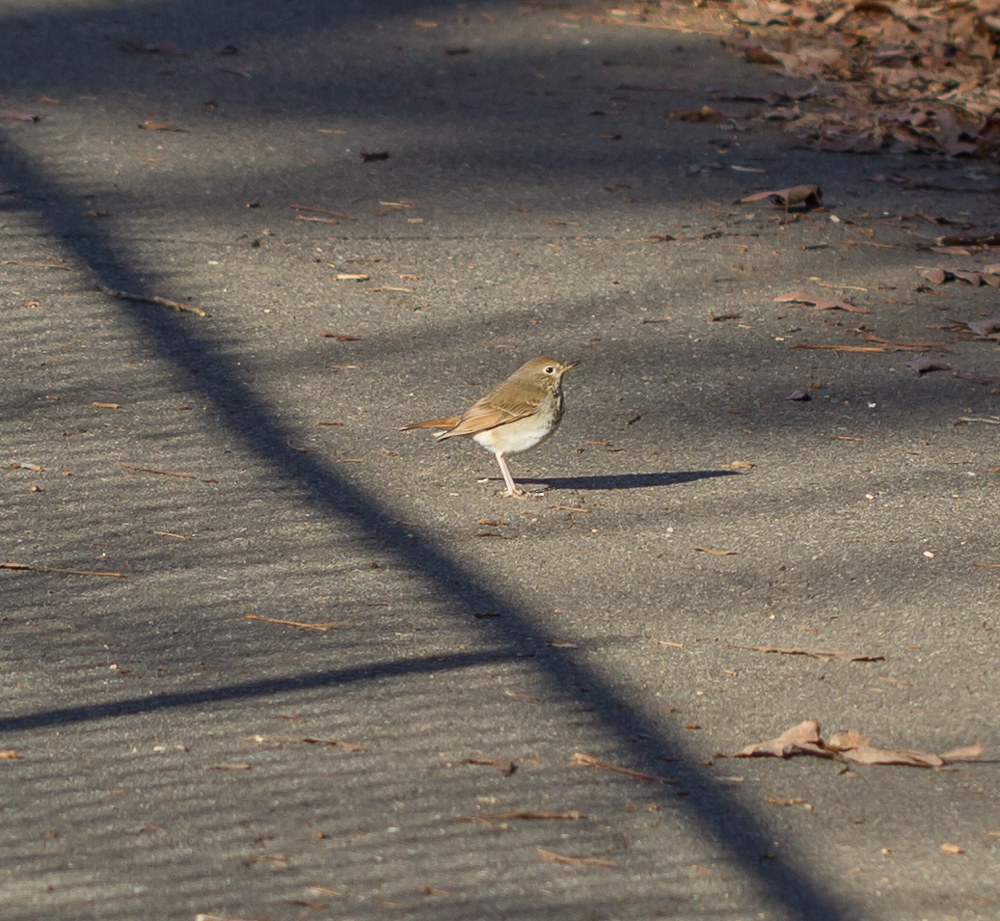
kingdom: Animalia
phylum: Chordata
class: Aves
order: Passeriformes
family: Turdidae
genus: Catharus
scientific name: Catharus guttatus
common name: Hermit thrush
